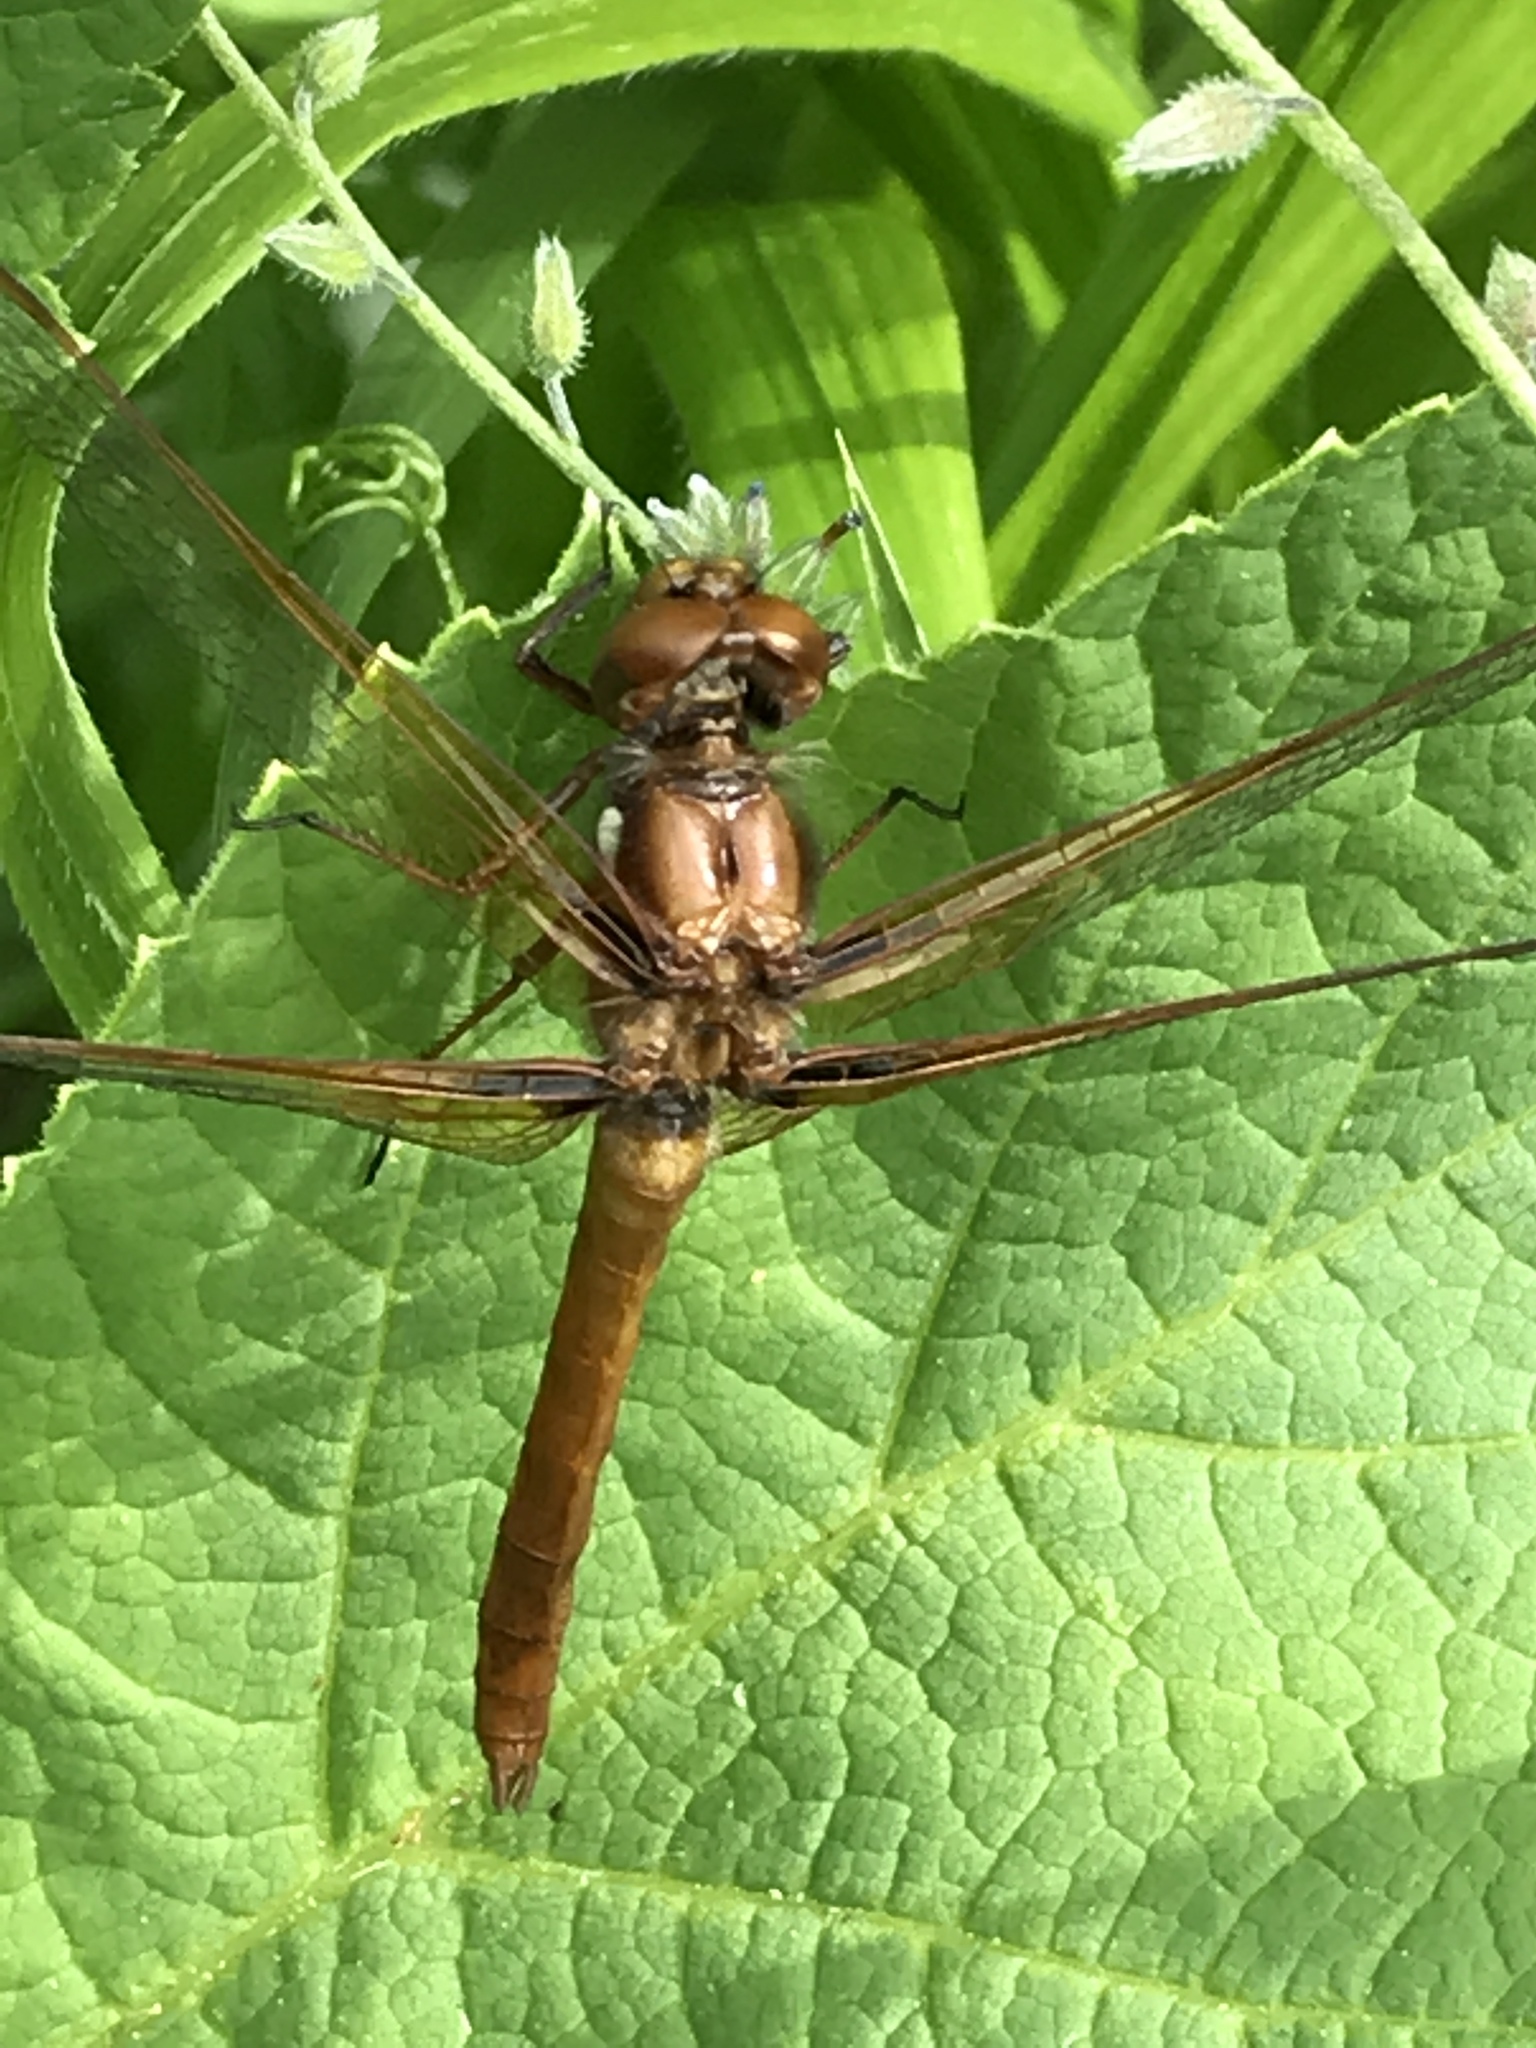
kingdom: Animalia
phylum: Arthropoda
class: Insecta
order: Odonata
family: Libellulidae
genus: Sympetrum
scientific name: Sympetrum illotum
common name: Cardinal meadowhawk
